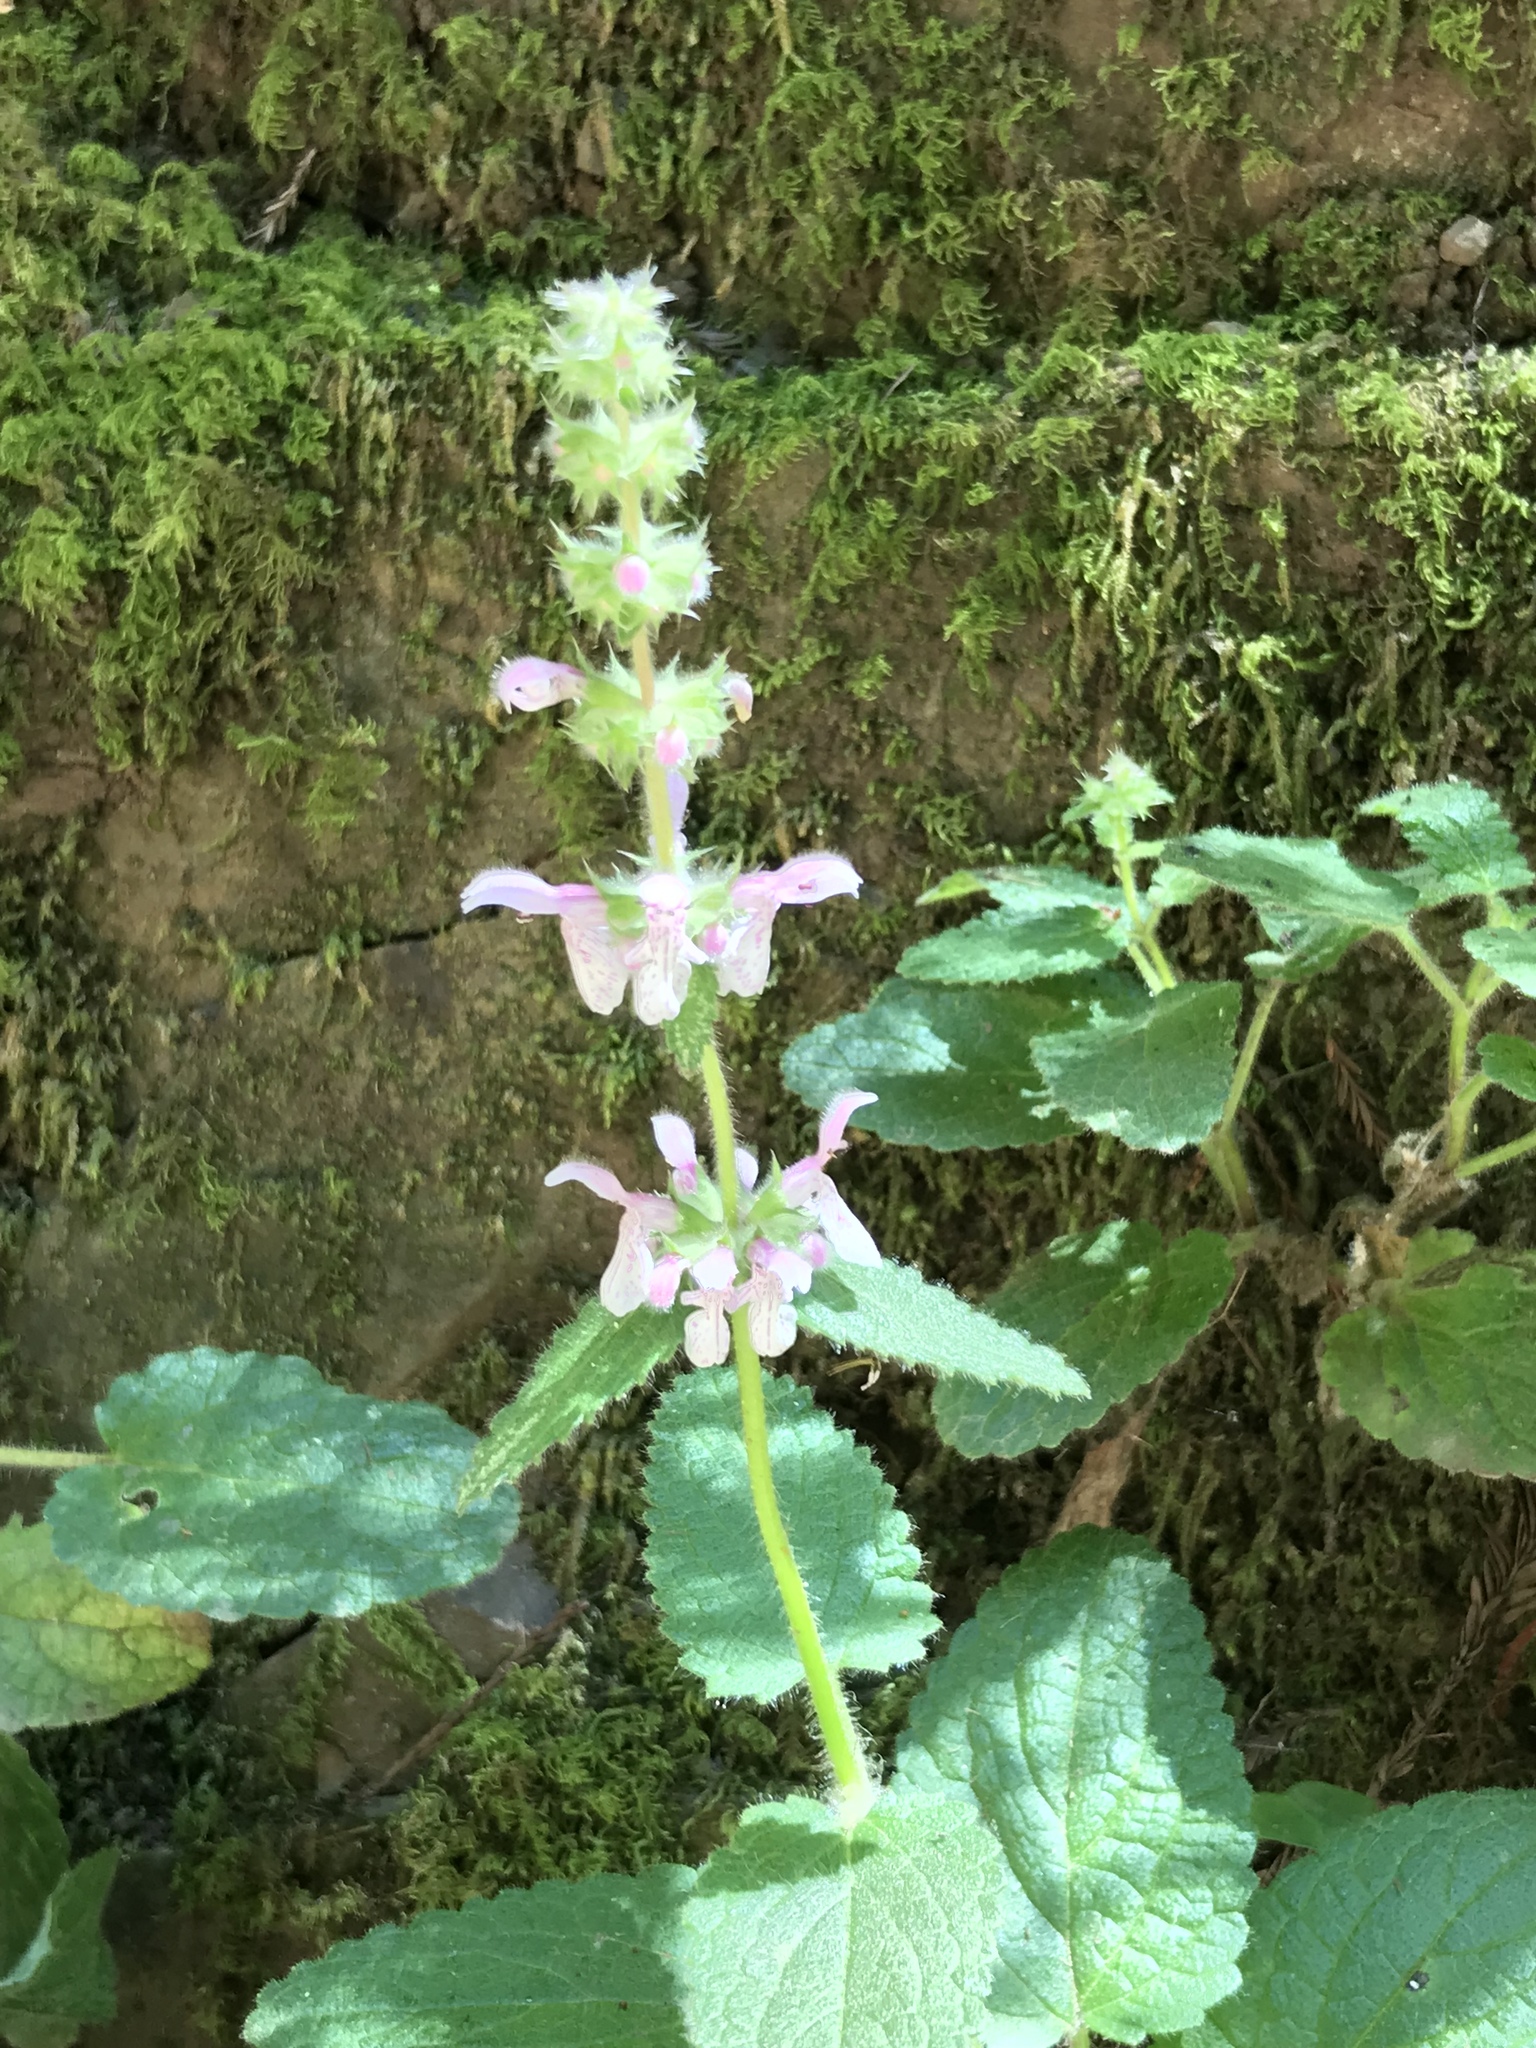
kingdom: Plantae
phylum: Tracheophyta
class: Magnoliopsida
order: Lamiales
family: Lamiaceae
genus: Stachys
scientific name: Stachys rigida
